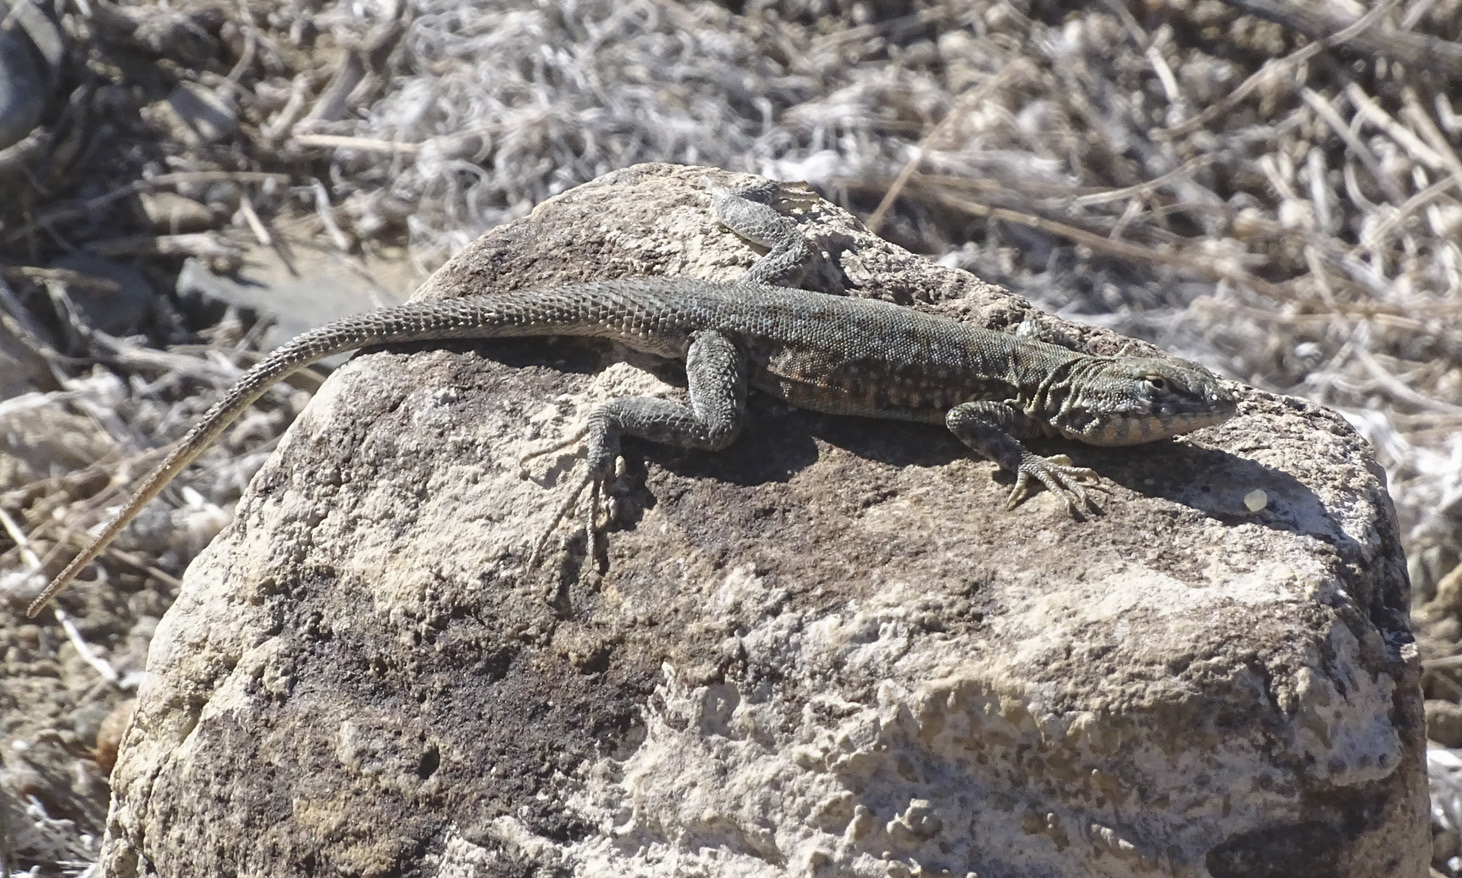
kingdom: Animalia
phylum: Chordata
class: Squamata
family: Phrynosomatidae
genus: Uta
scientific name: Uta stansburiana
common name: Side-blotched lizard
